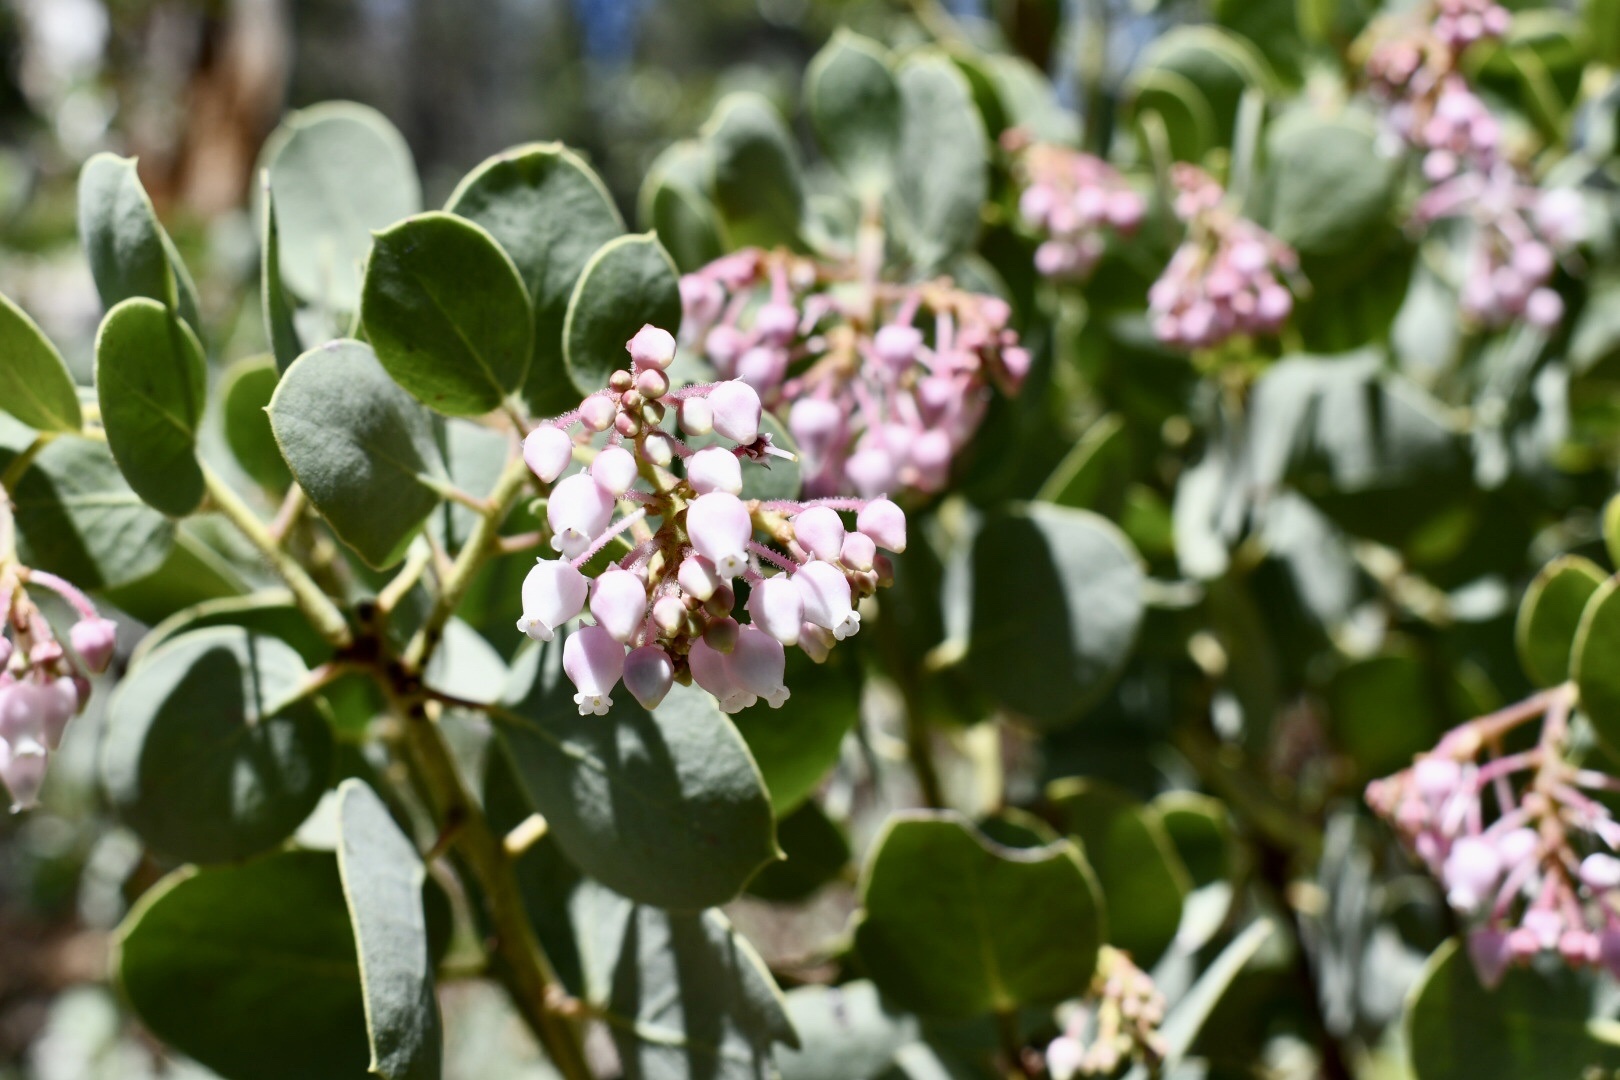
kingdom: Plantae
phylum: Tracheophyta
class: Magnoliopsida
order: Ericales
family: Ericaceae
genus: Arctostaphylos
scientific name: Arctostaphylos viscida
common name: White-leaf manzanita
